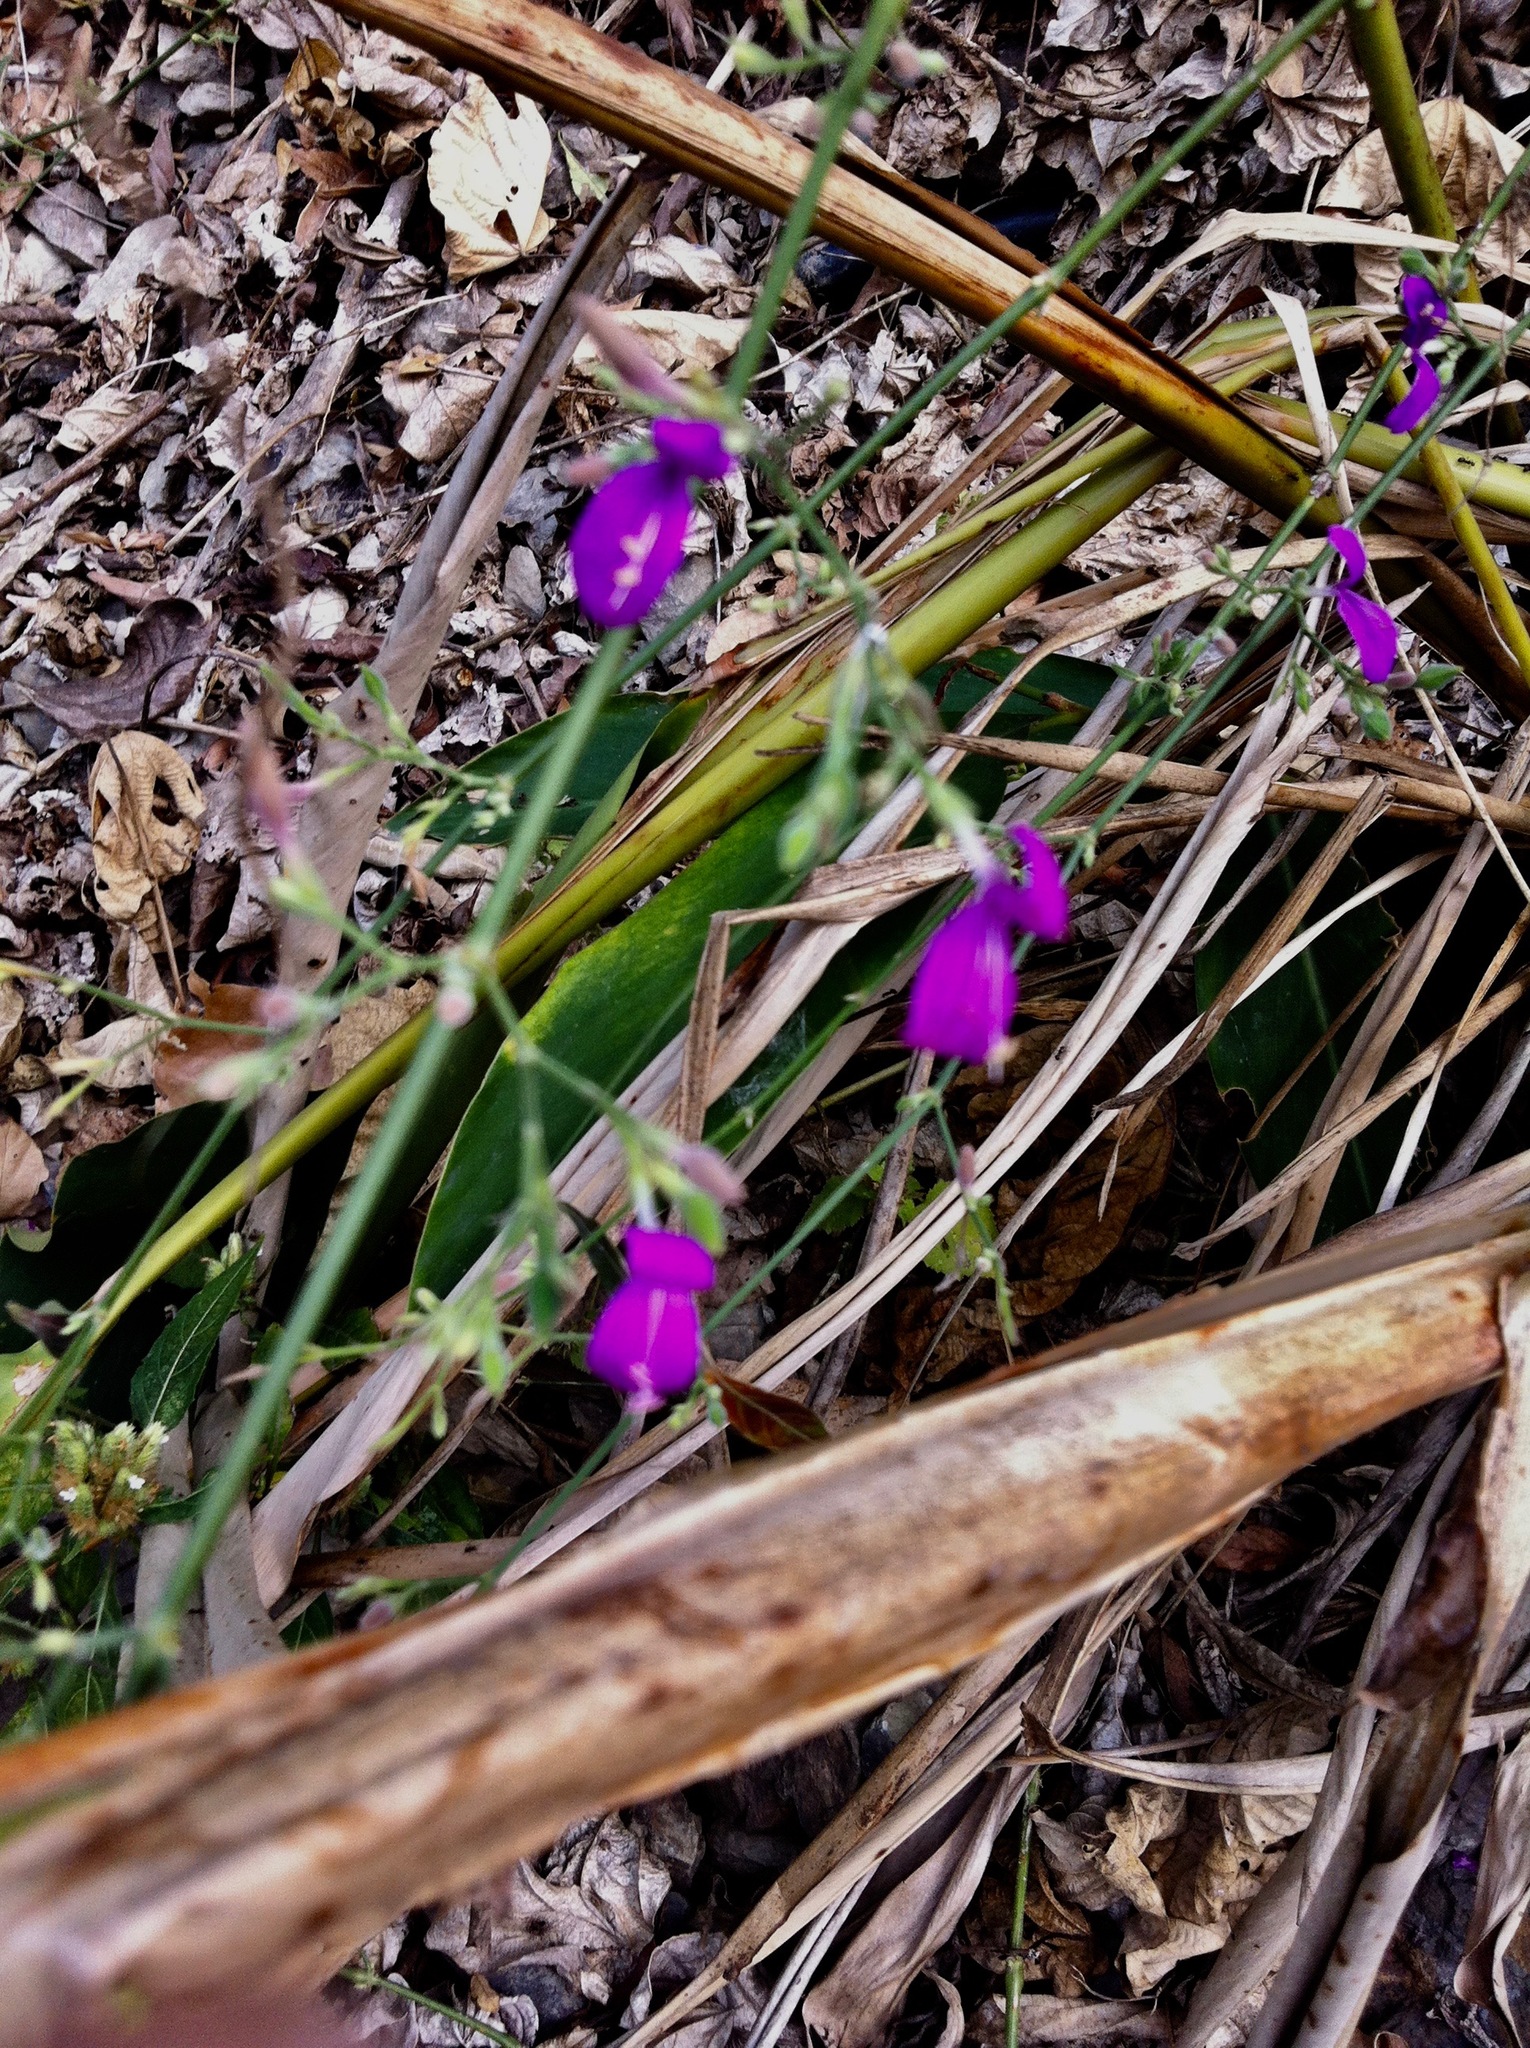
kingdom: Plantae
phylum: Tracheophyta
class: Magnoliopsida
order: Lamiales
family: Acanthaceae
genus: Hypoestes
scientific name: Hypoestes cumingiana
